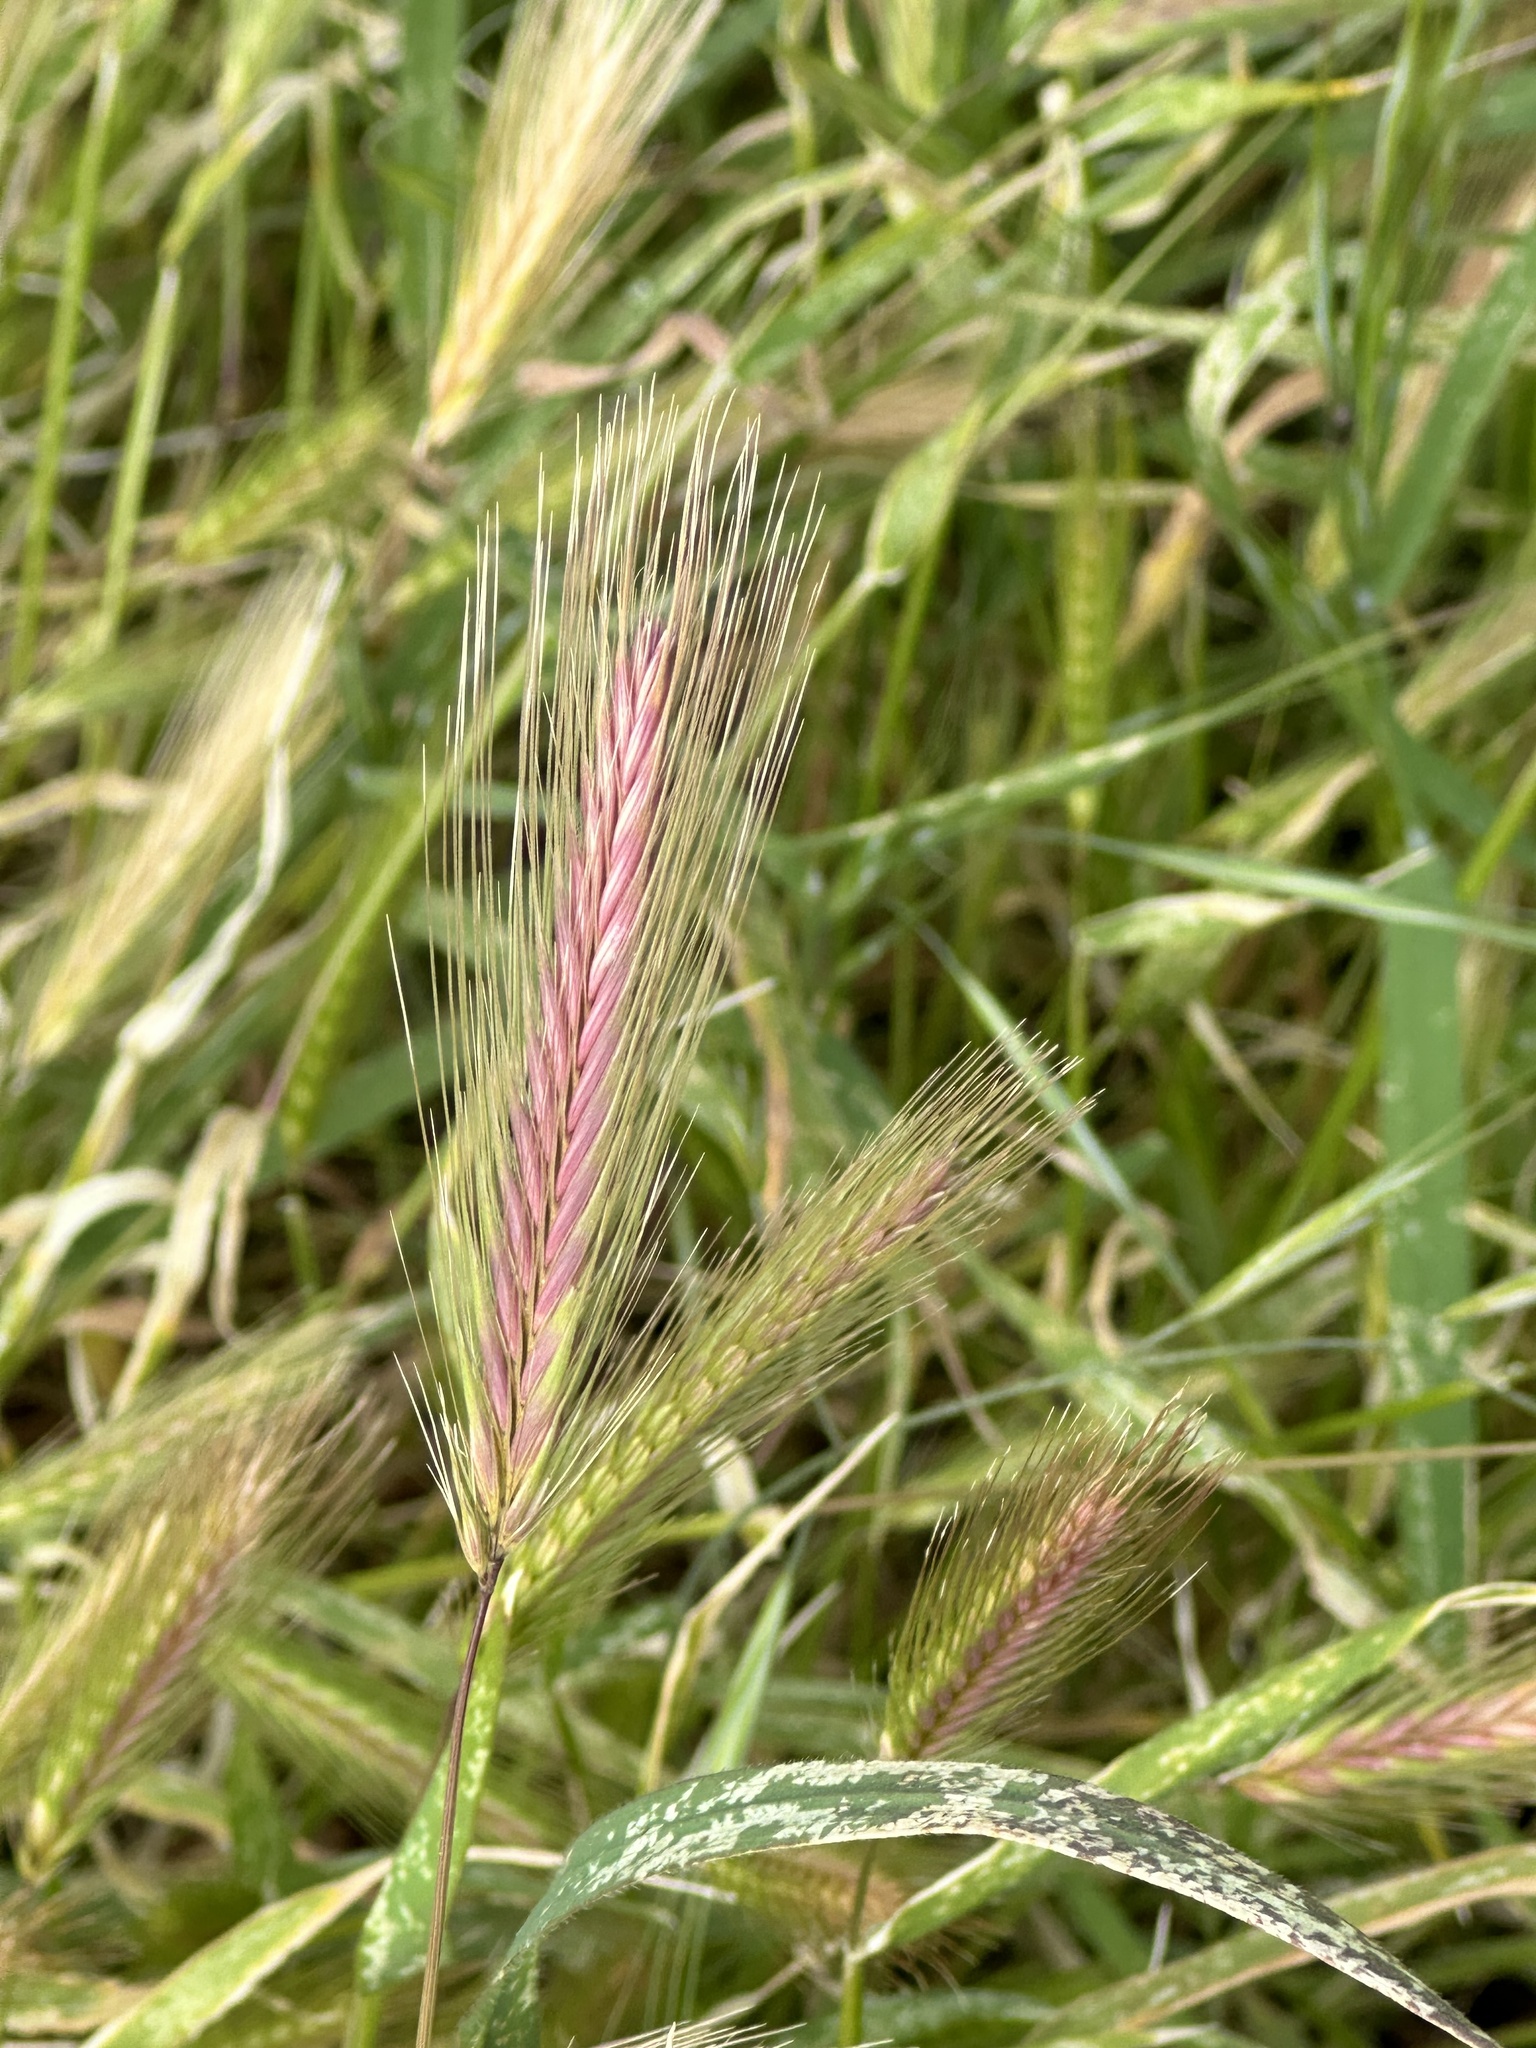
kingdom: Plantae
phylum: Tracheophyta
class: Liliopsida
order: Poales
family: Poaceae
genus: Hordeum
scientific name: Hordeum murinum
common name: Wall barley
